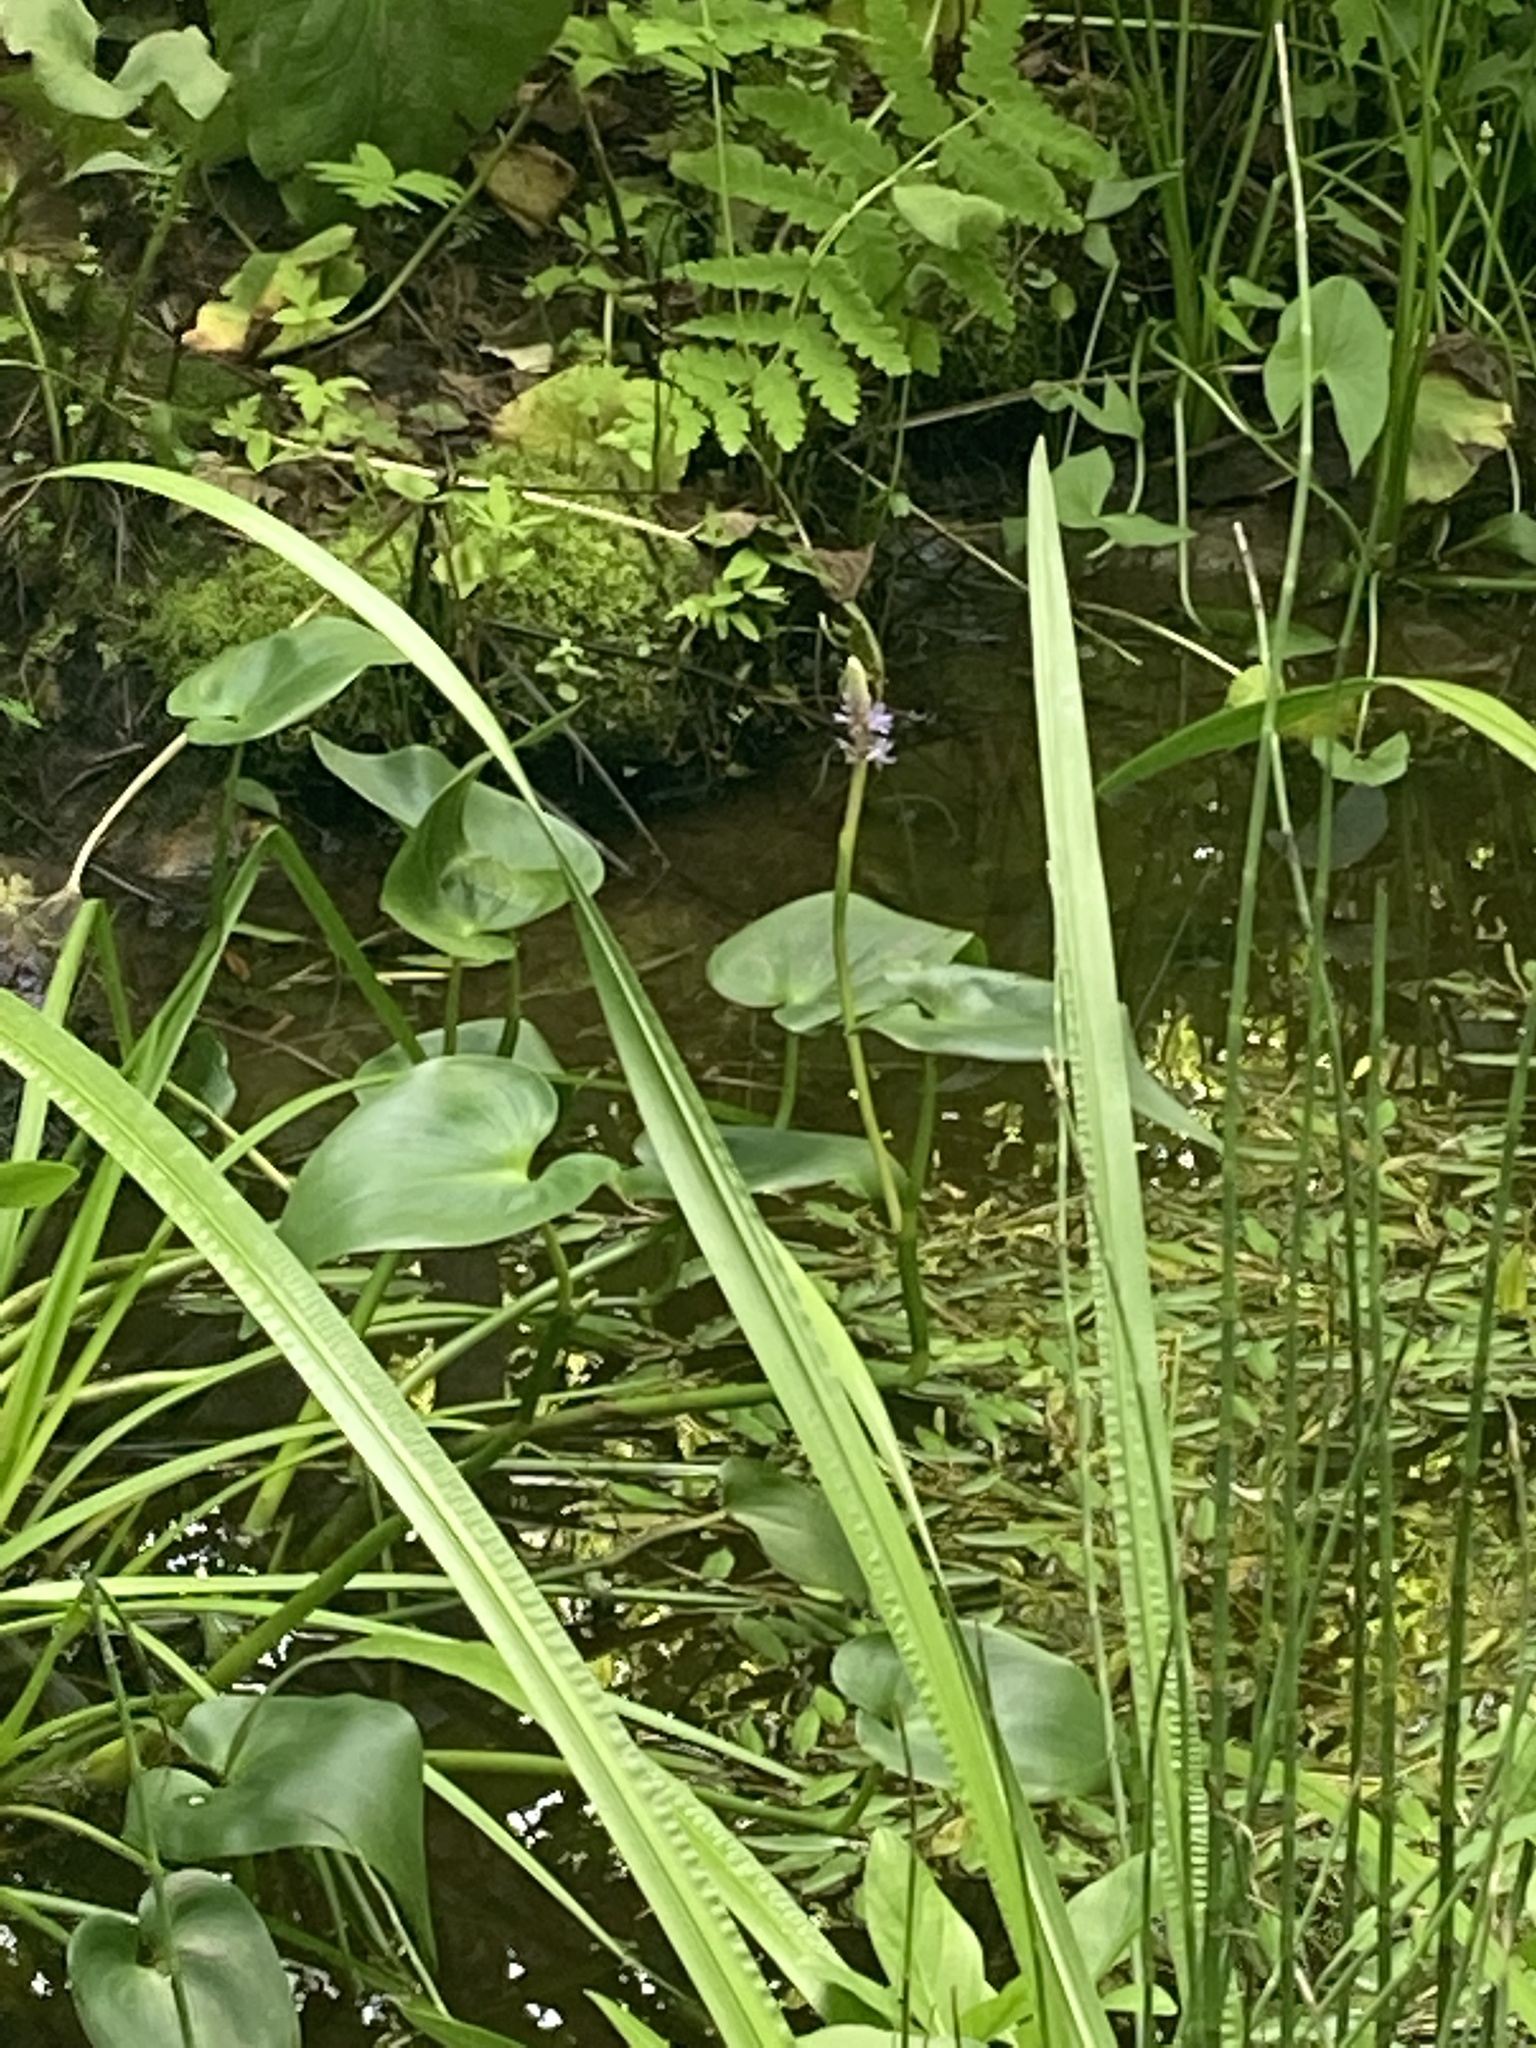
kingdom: Plantae
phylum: Tracheophyta
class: Liliopsida
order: Commelinales
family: Pontederiaceae
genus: Pontederia
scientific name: Pontederia cordata
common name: Pickerelweed
